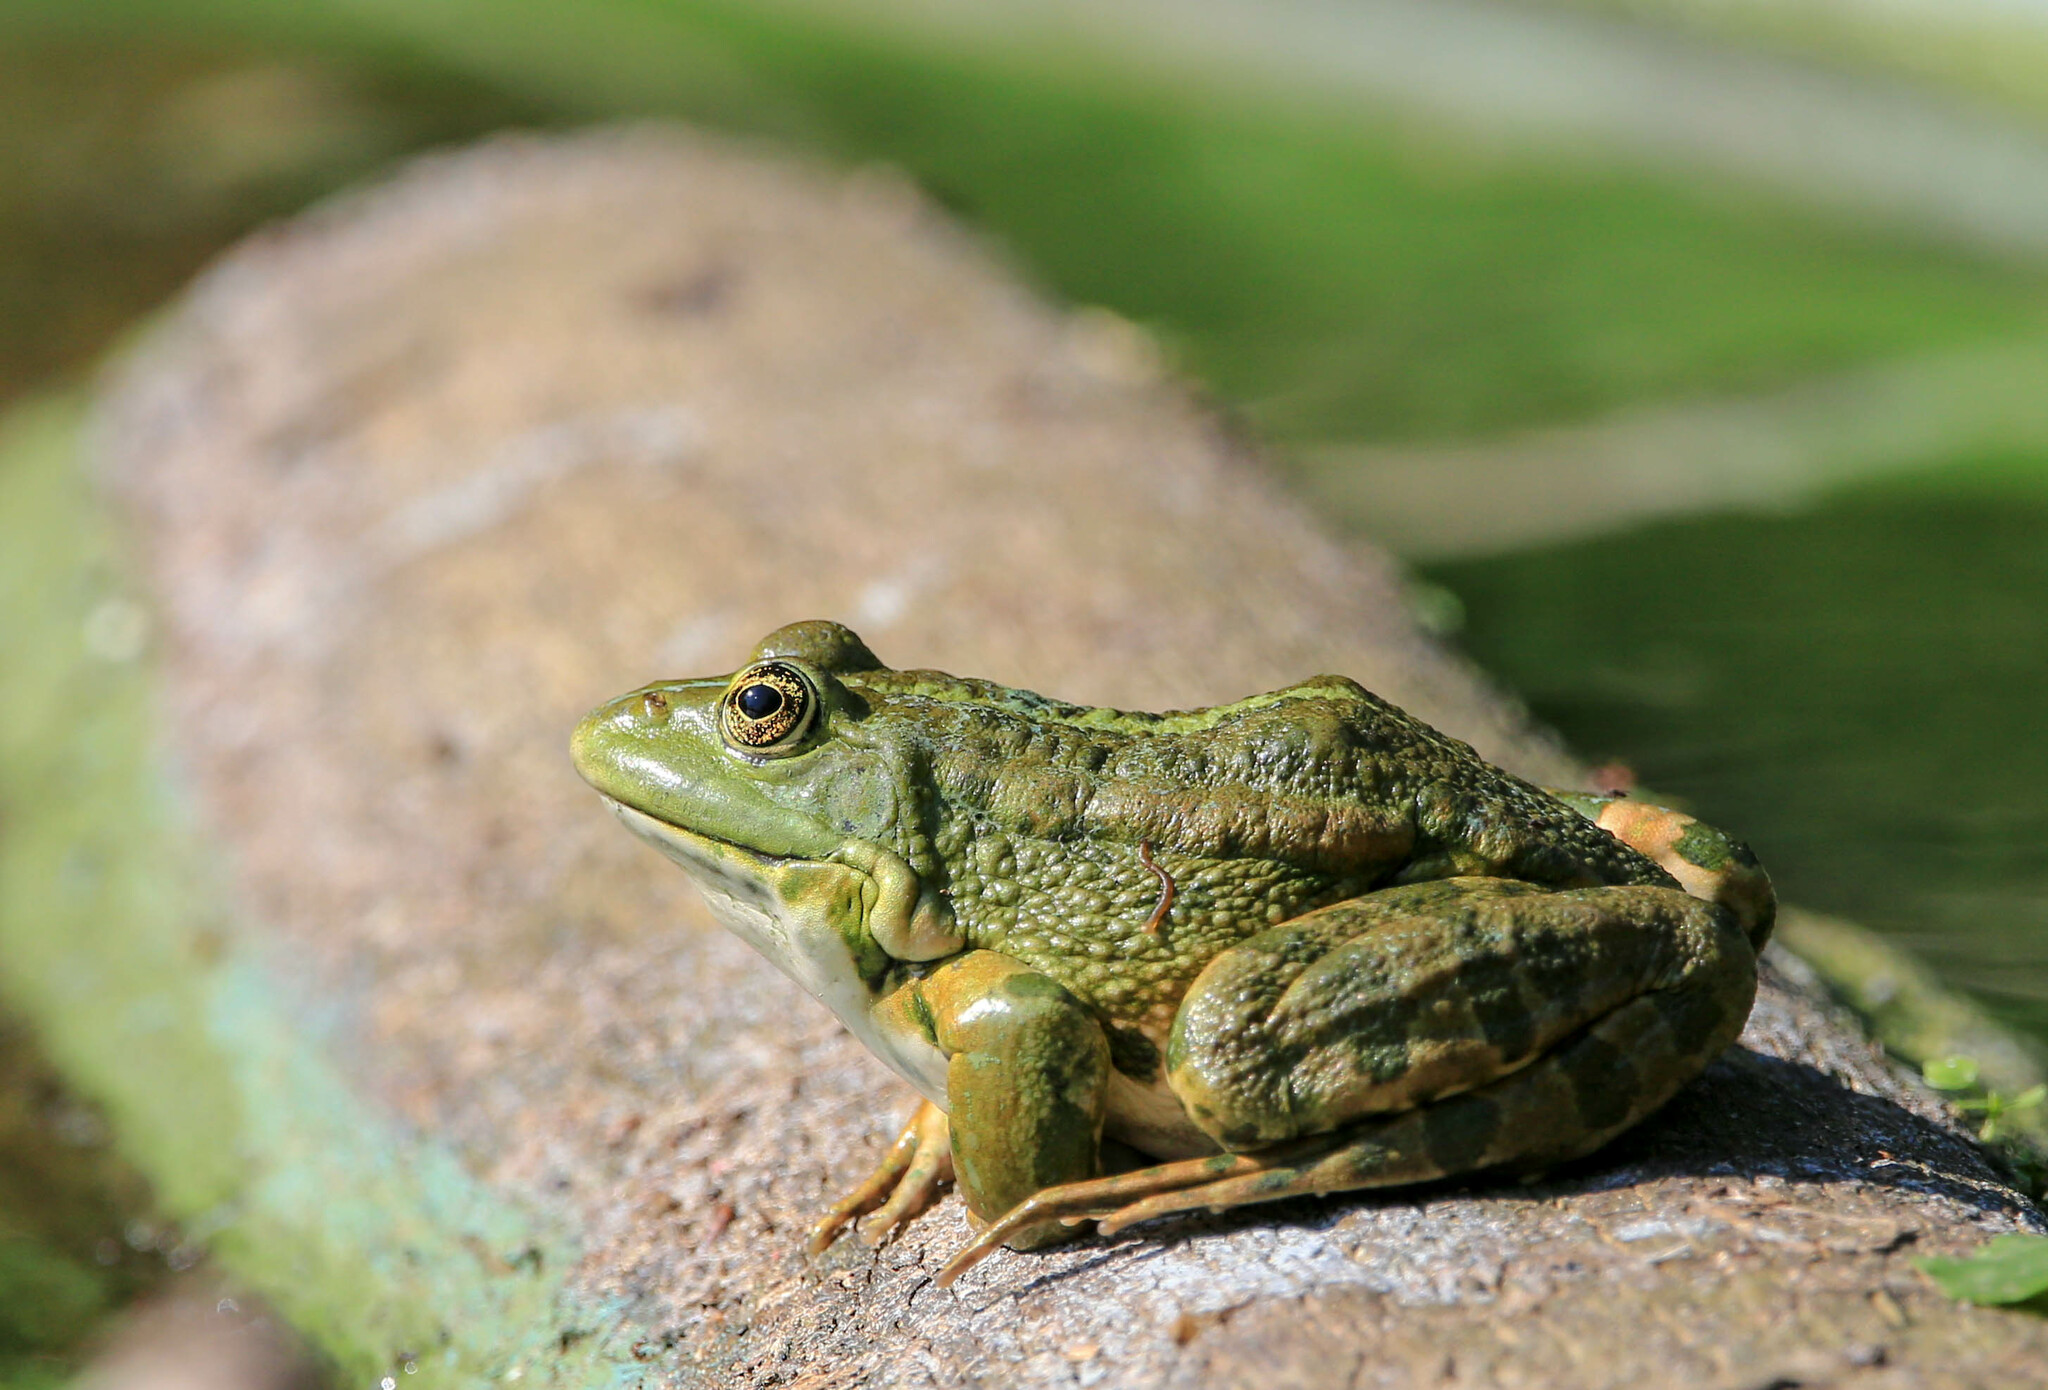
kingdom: Animalia
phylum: Chordata
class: Amphibia
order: Anura
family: Ranidae
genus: Pelophylax
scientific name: Pelophylax ridibundus
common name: Marsh frog
